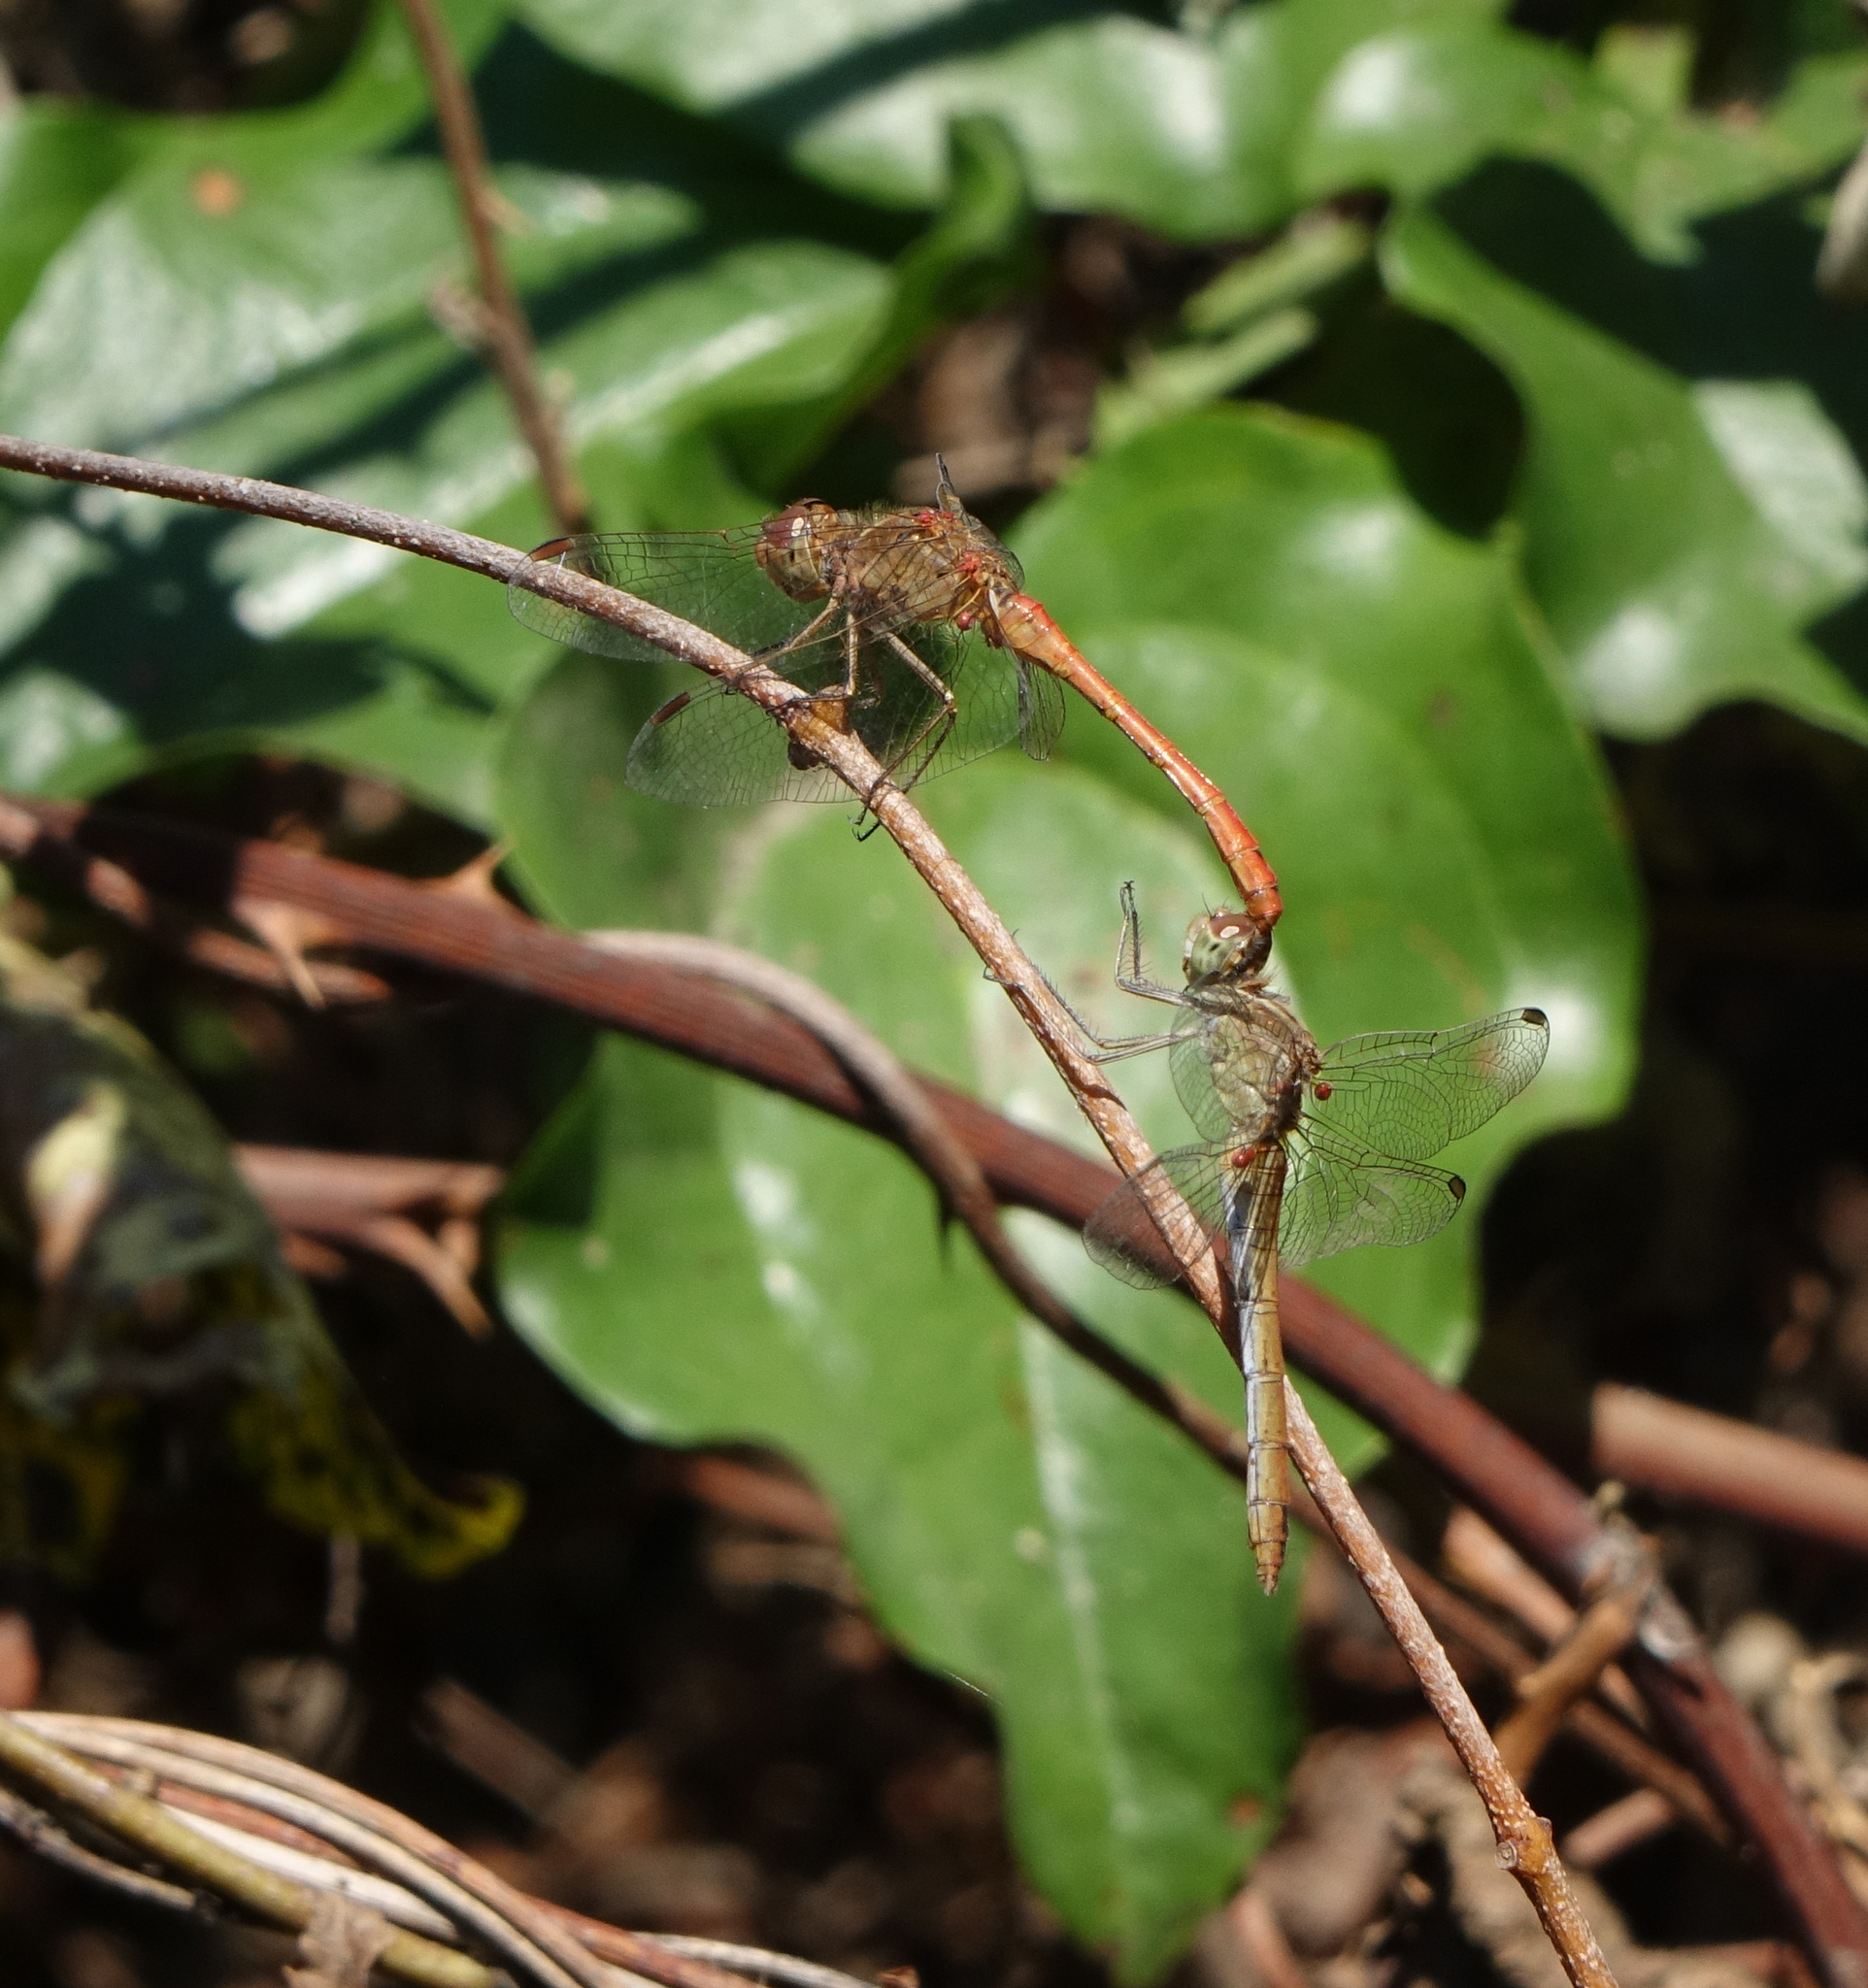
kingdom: Animalia
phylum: Arthropoda
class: Insecta
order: Odonata
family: Libellulidae
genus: Sympetrum
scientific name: Sympetrum meridionale
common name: Southern darter
